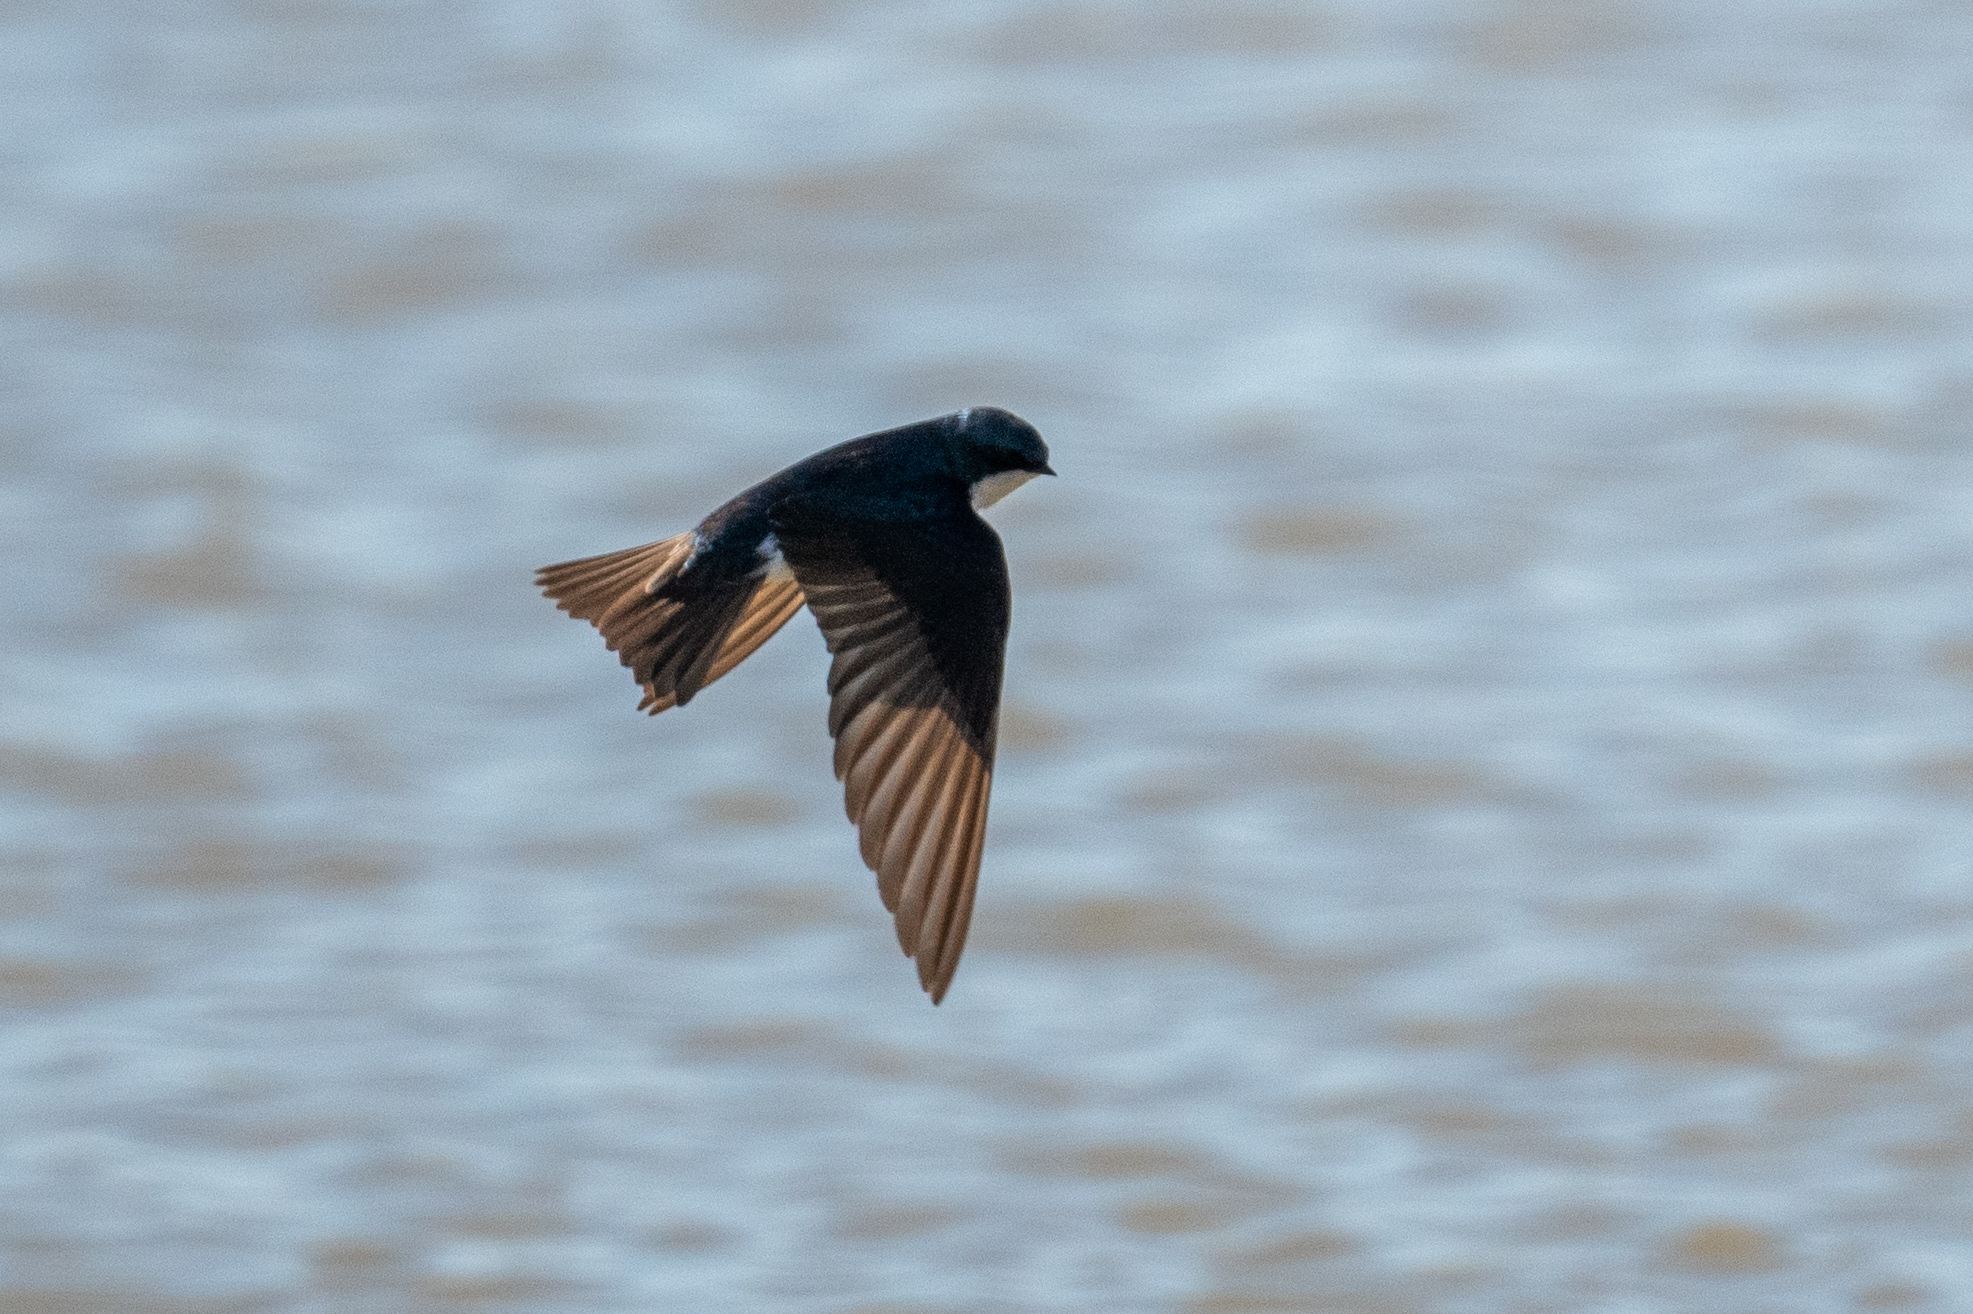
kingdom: Animalia
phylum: Chordata
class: Aves
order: Passeriformes
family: Hirundinidae
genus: Tachycineta
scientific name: Tachycineta bicolor
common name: Tree swallow
